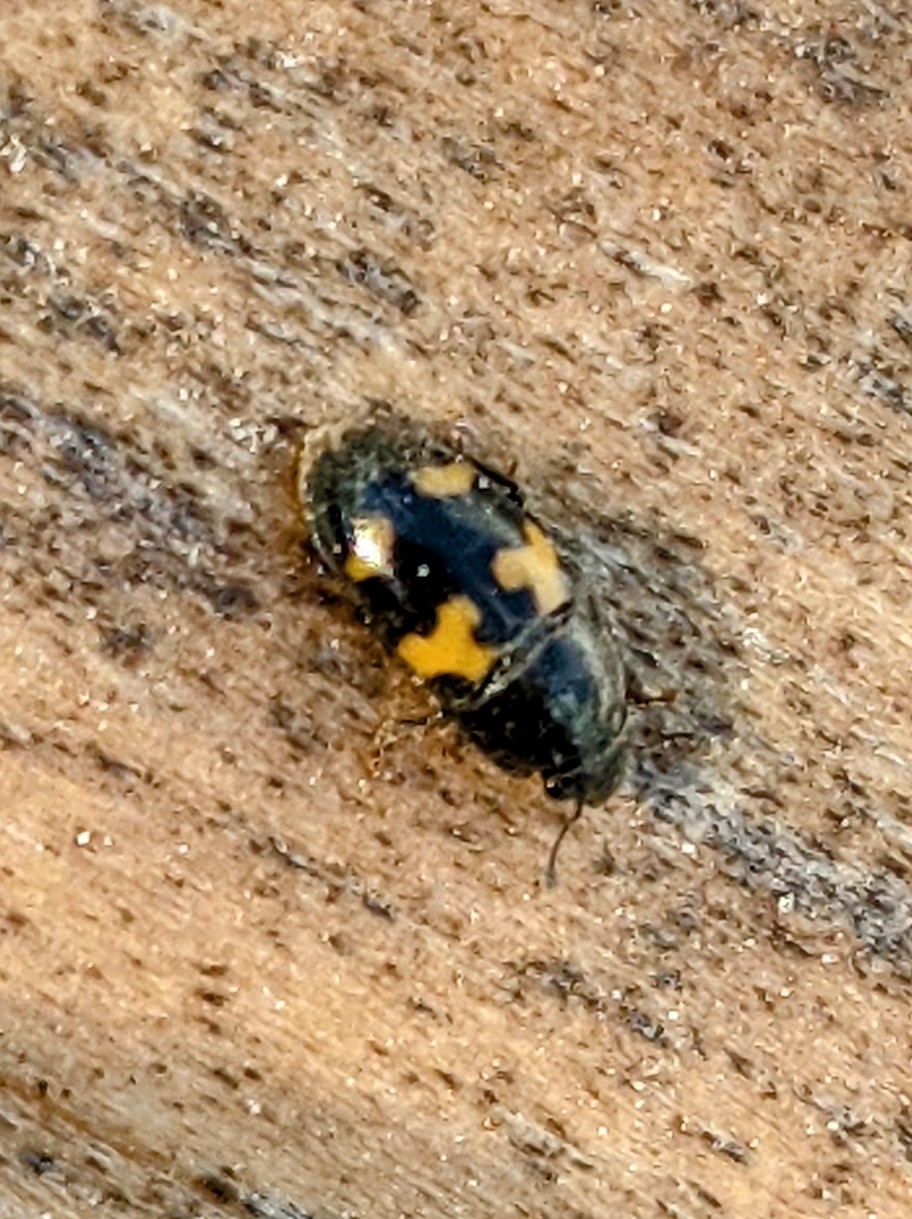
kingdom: Animalia
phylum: Arthropoda
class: Insecta
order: Coleoptera
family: Nitidulidae
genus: Glischrochilus
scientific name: Glischrochilus fasciatus
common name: Picnic beetle
